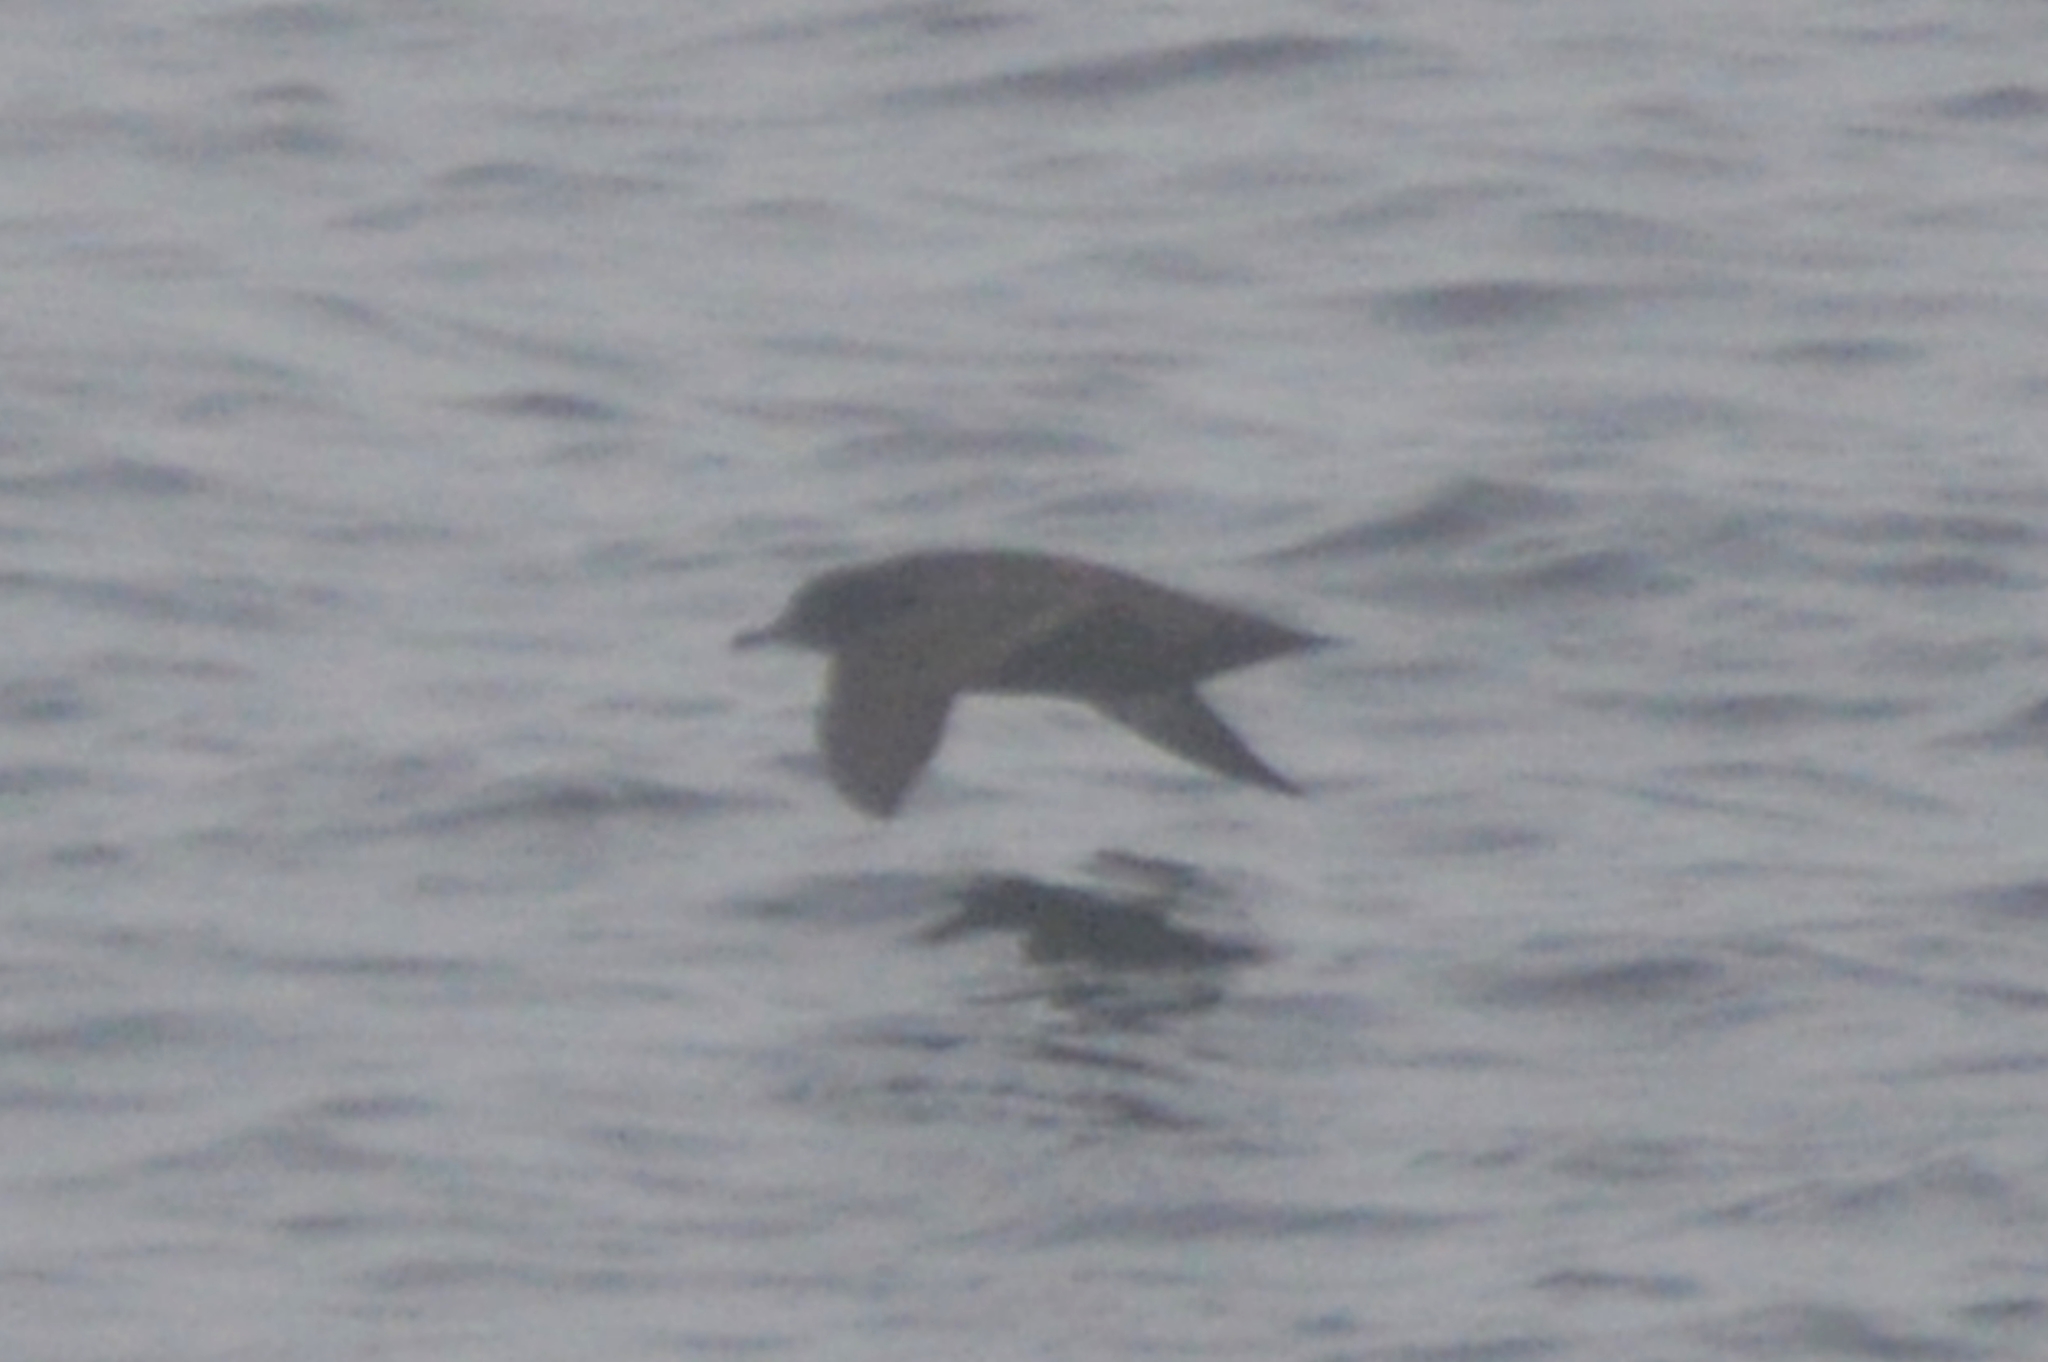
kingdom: Animalia
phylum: Chordata
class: Aves
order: Procellariiformes
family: Procellariidae
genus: Puffinus
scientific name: Puffinus griseus
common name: Sooty shearwater
